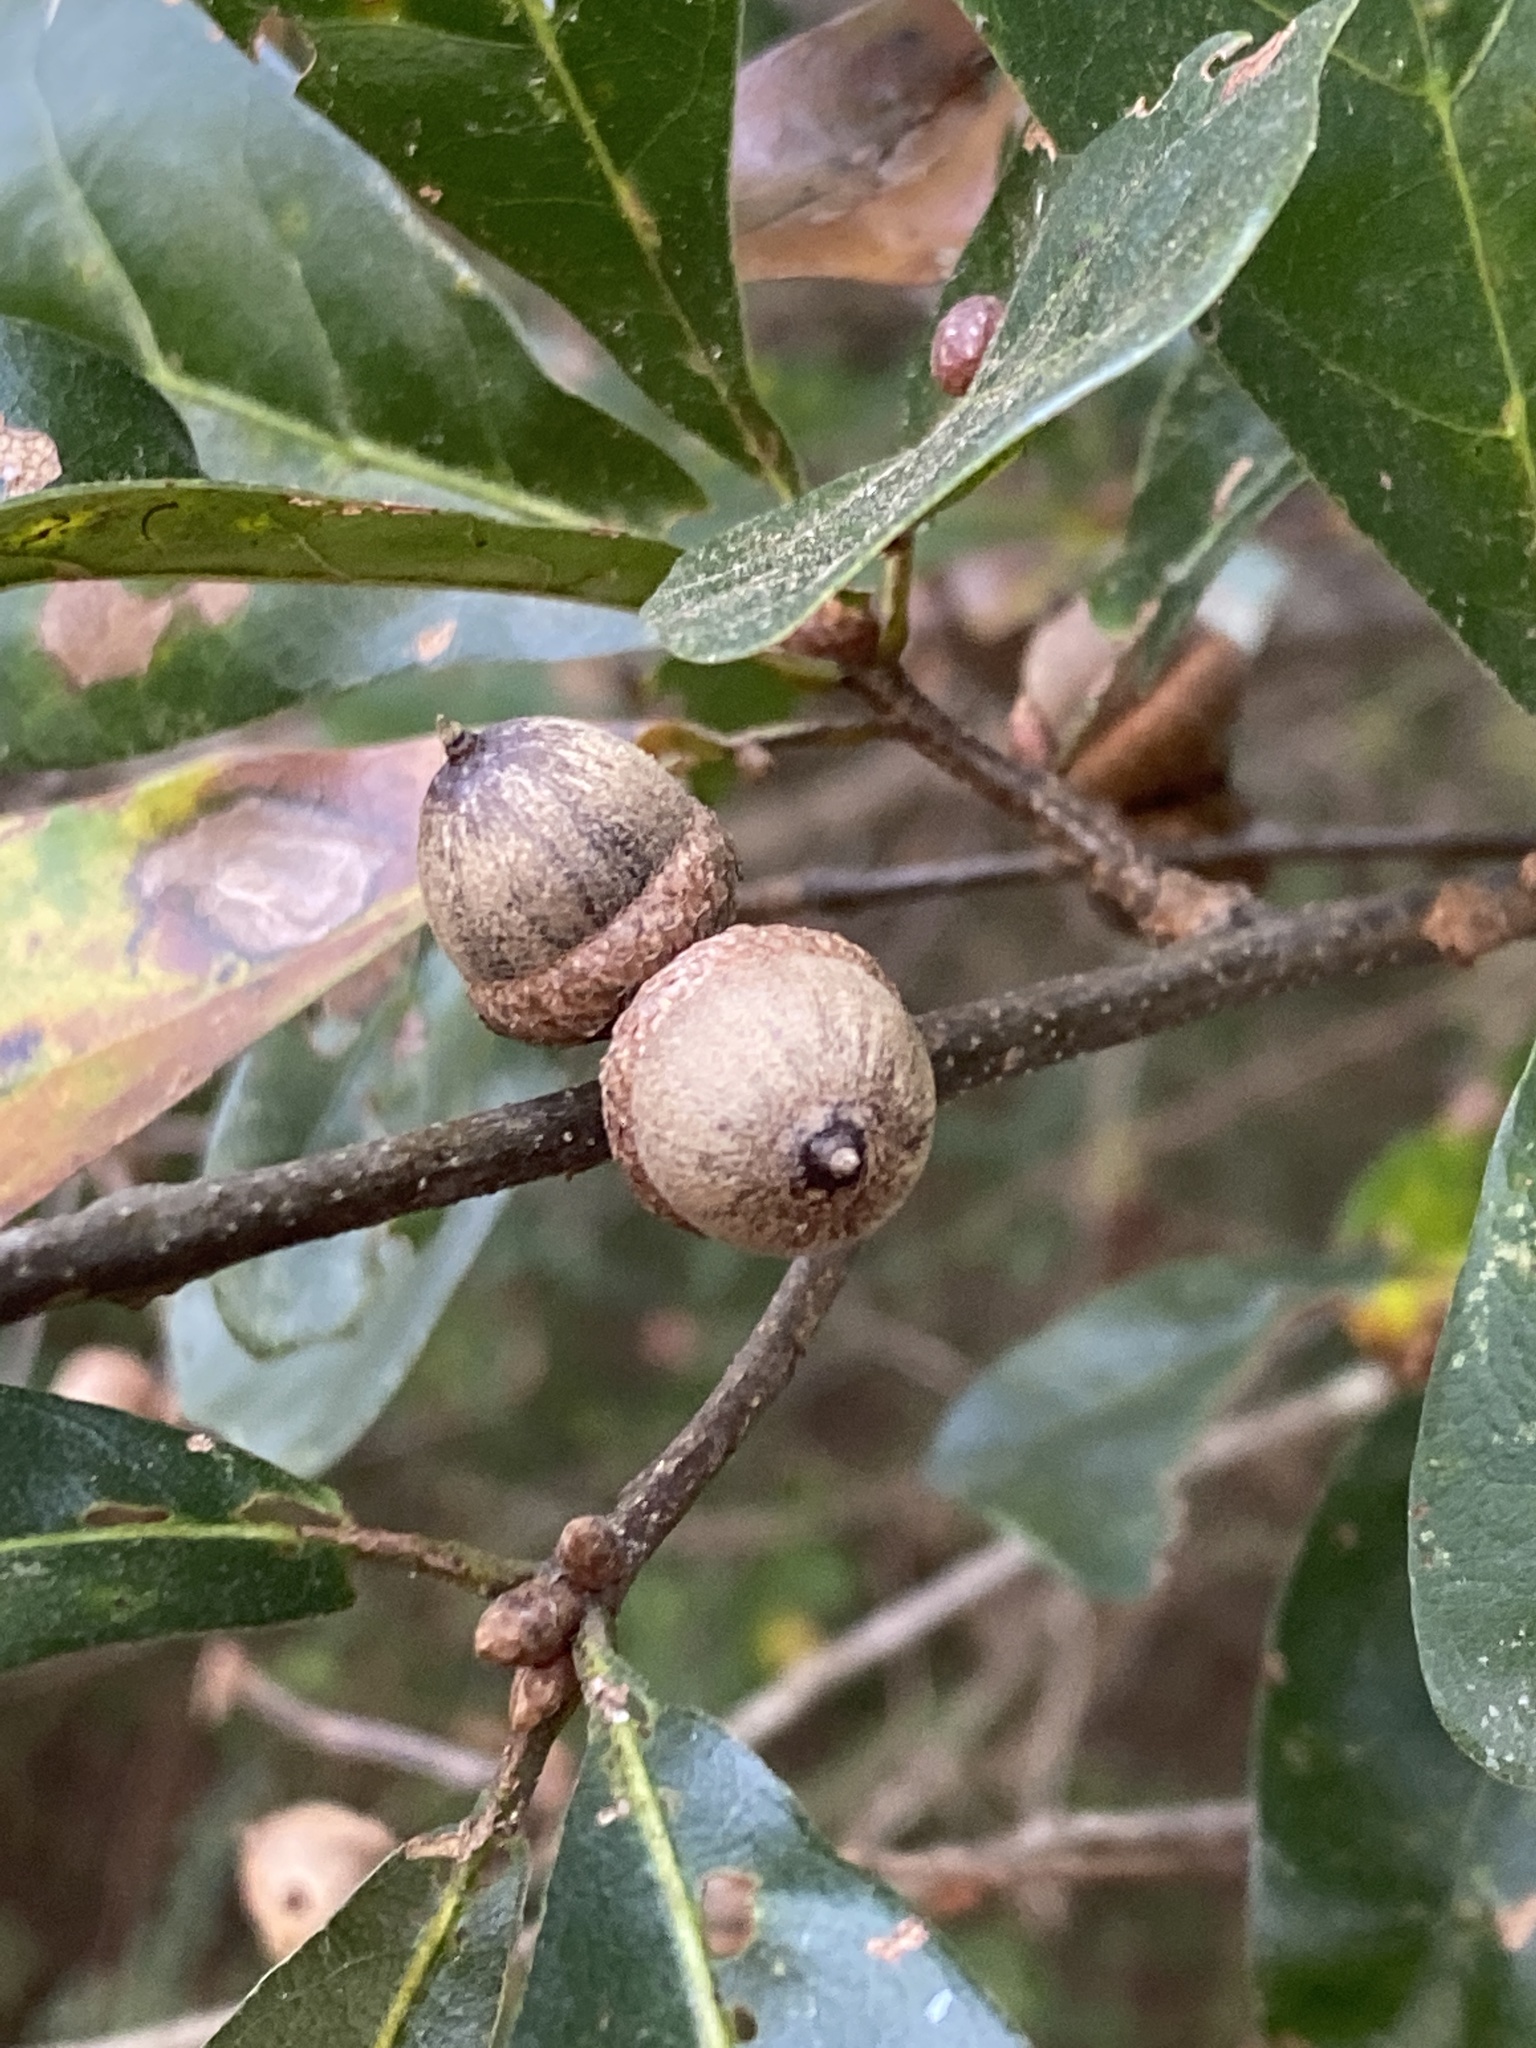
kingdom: Plantae
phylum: Tracheophyta
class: Magnoliopsida
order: Fagales
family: Fagaceae
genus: Quercus
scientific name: Quercus nigra
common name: Water oak
